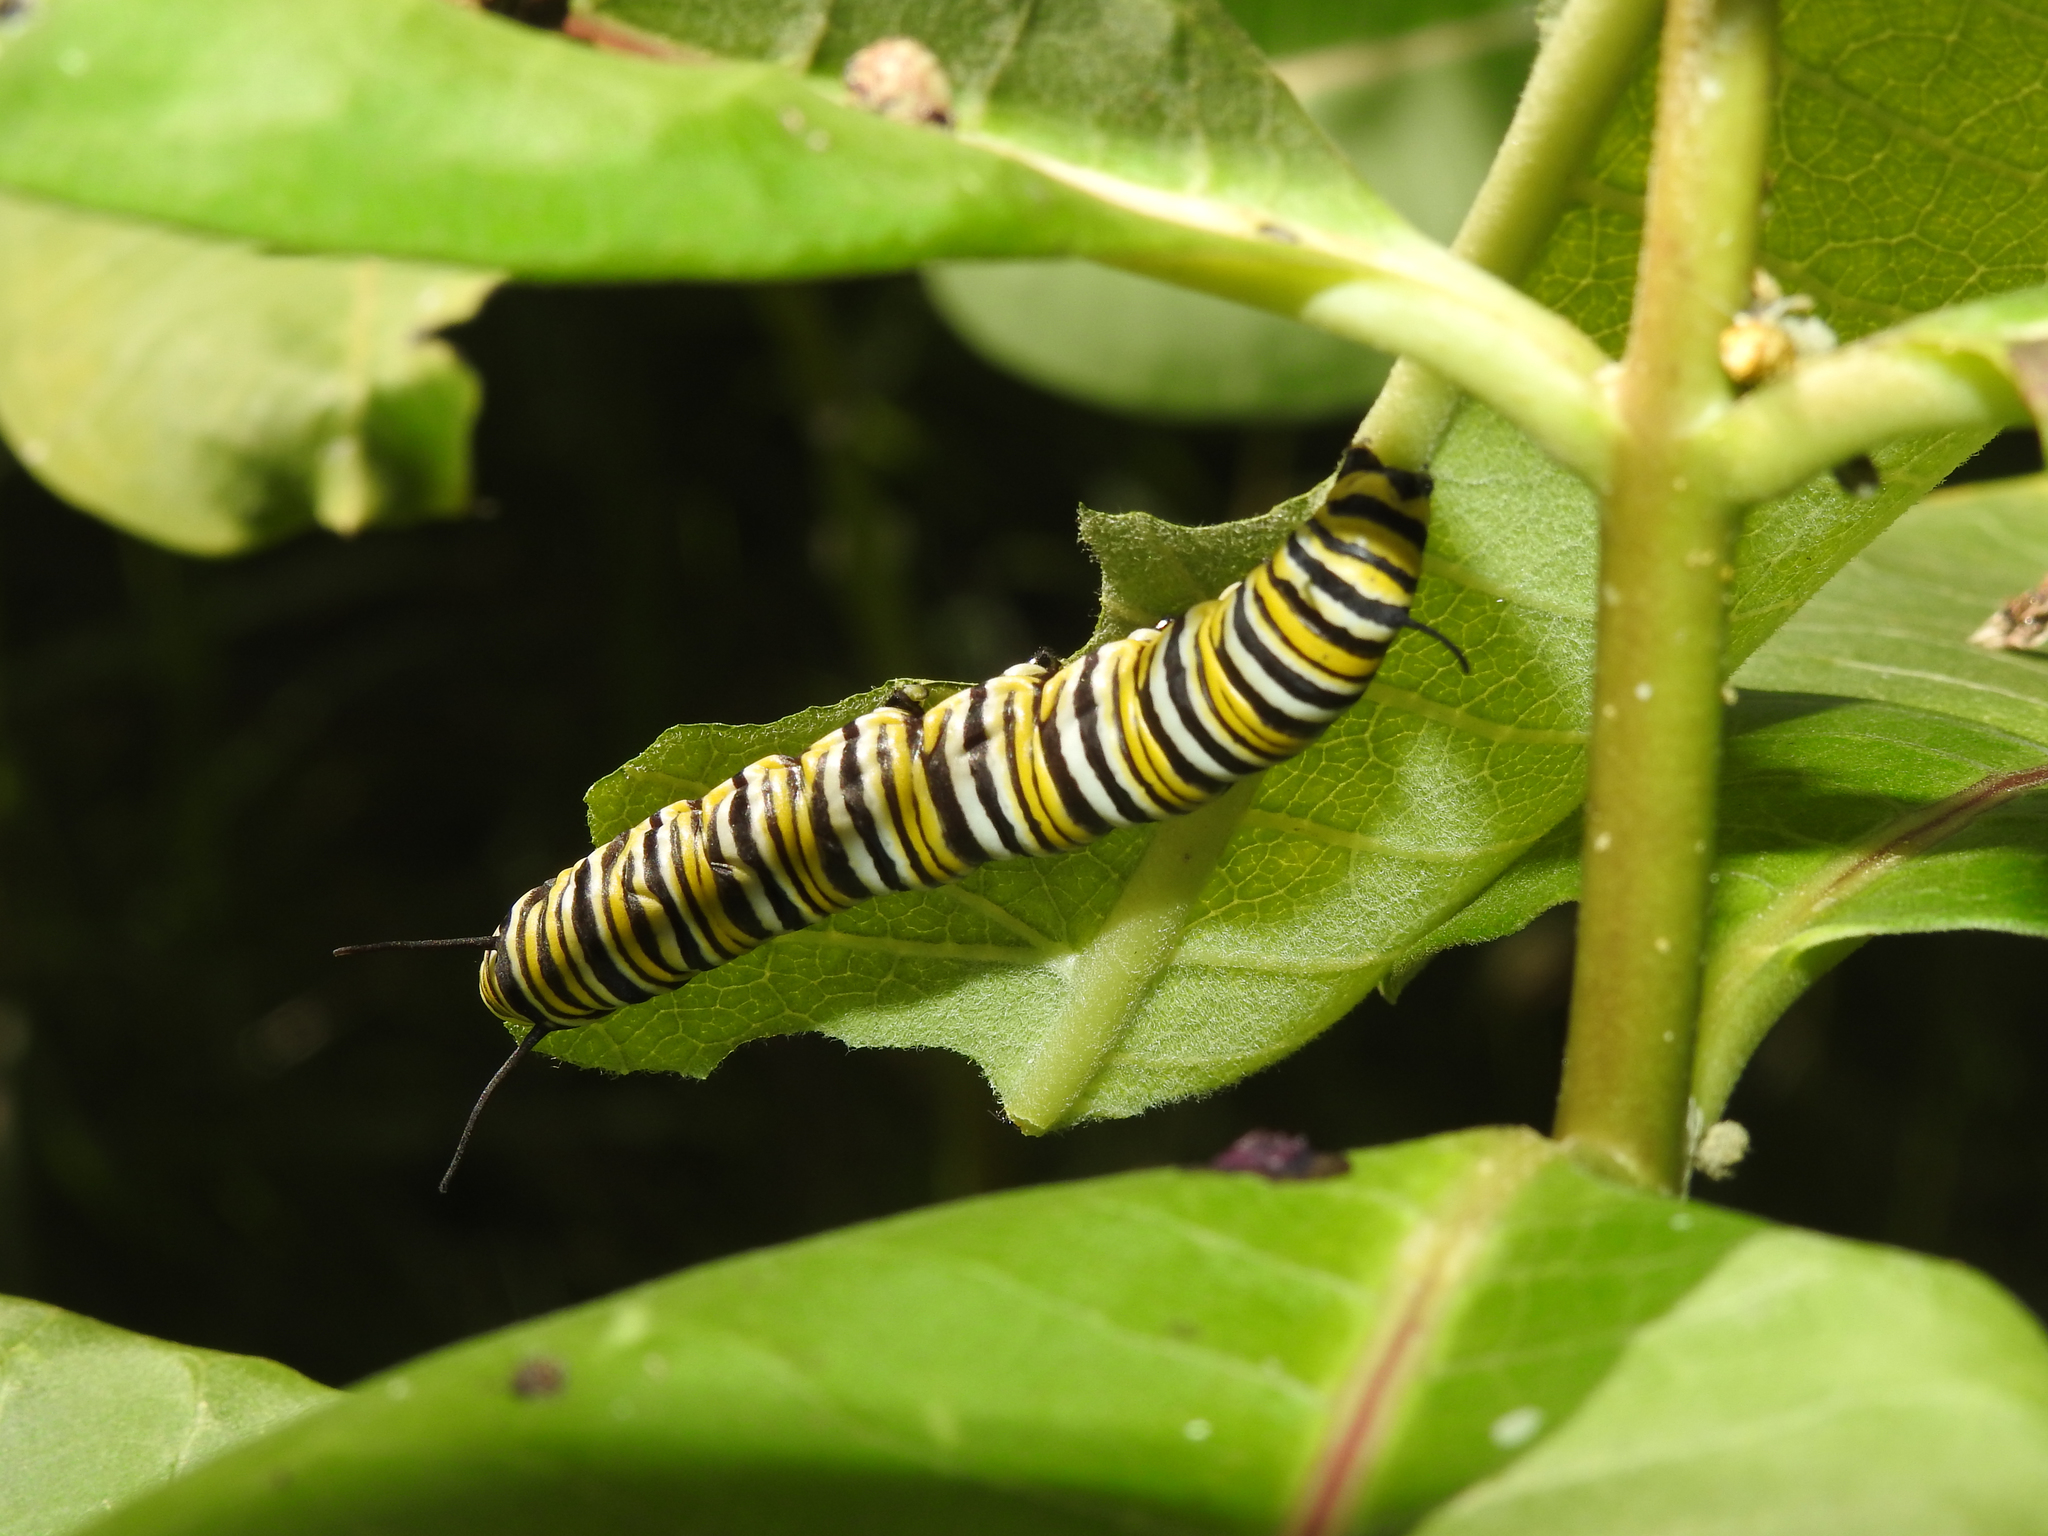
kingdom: Animalia
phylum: Arthropoda
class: Insecta
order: Lepidoptera
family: Nymphalidae
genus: Danaus
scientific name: Danaus plexippus
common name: Monarch
